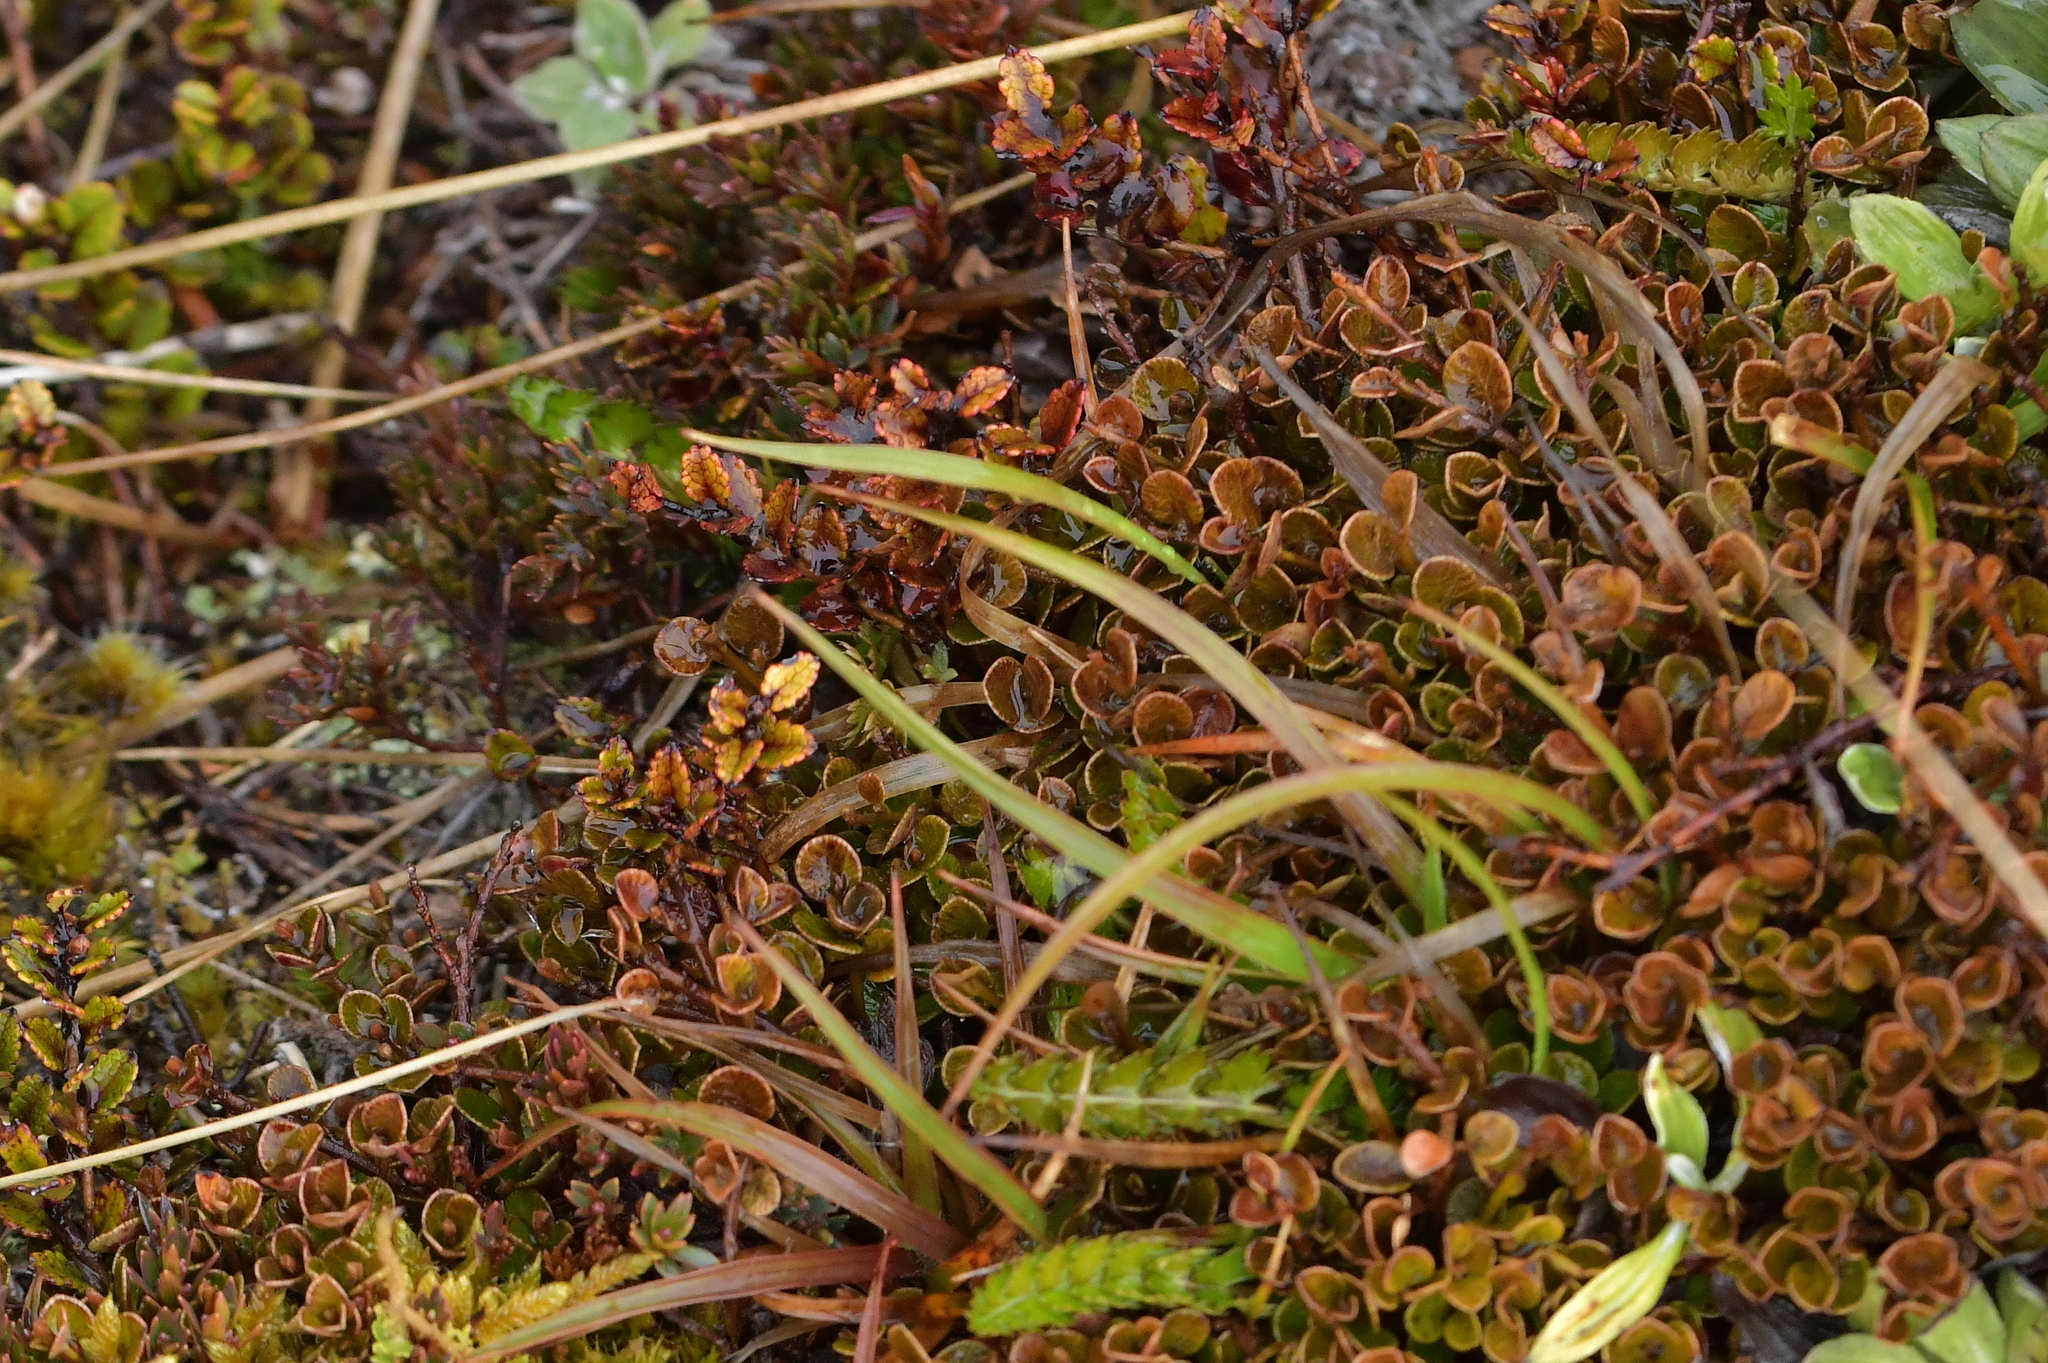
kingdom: Plantae
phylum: Tracheophyta
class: Magnoliopsida
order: Ericales
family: Primulaceae
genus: Myrsine
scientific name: Myrsine nummularia
